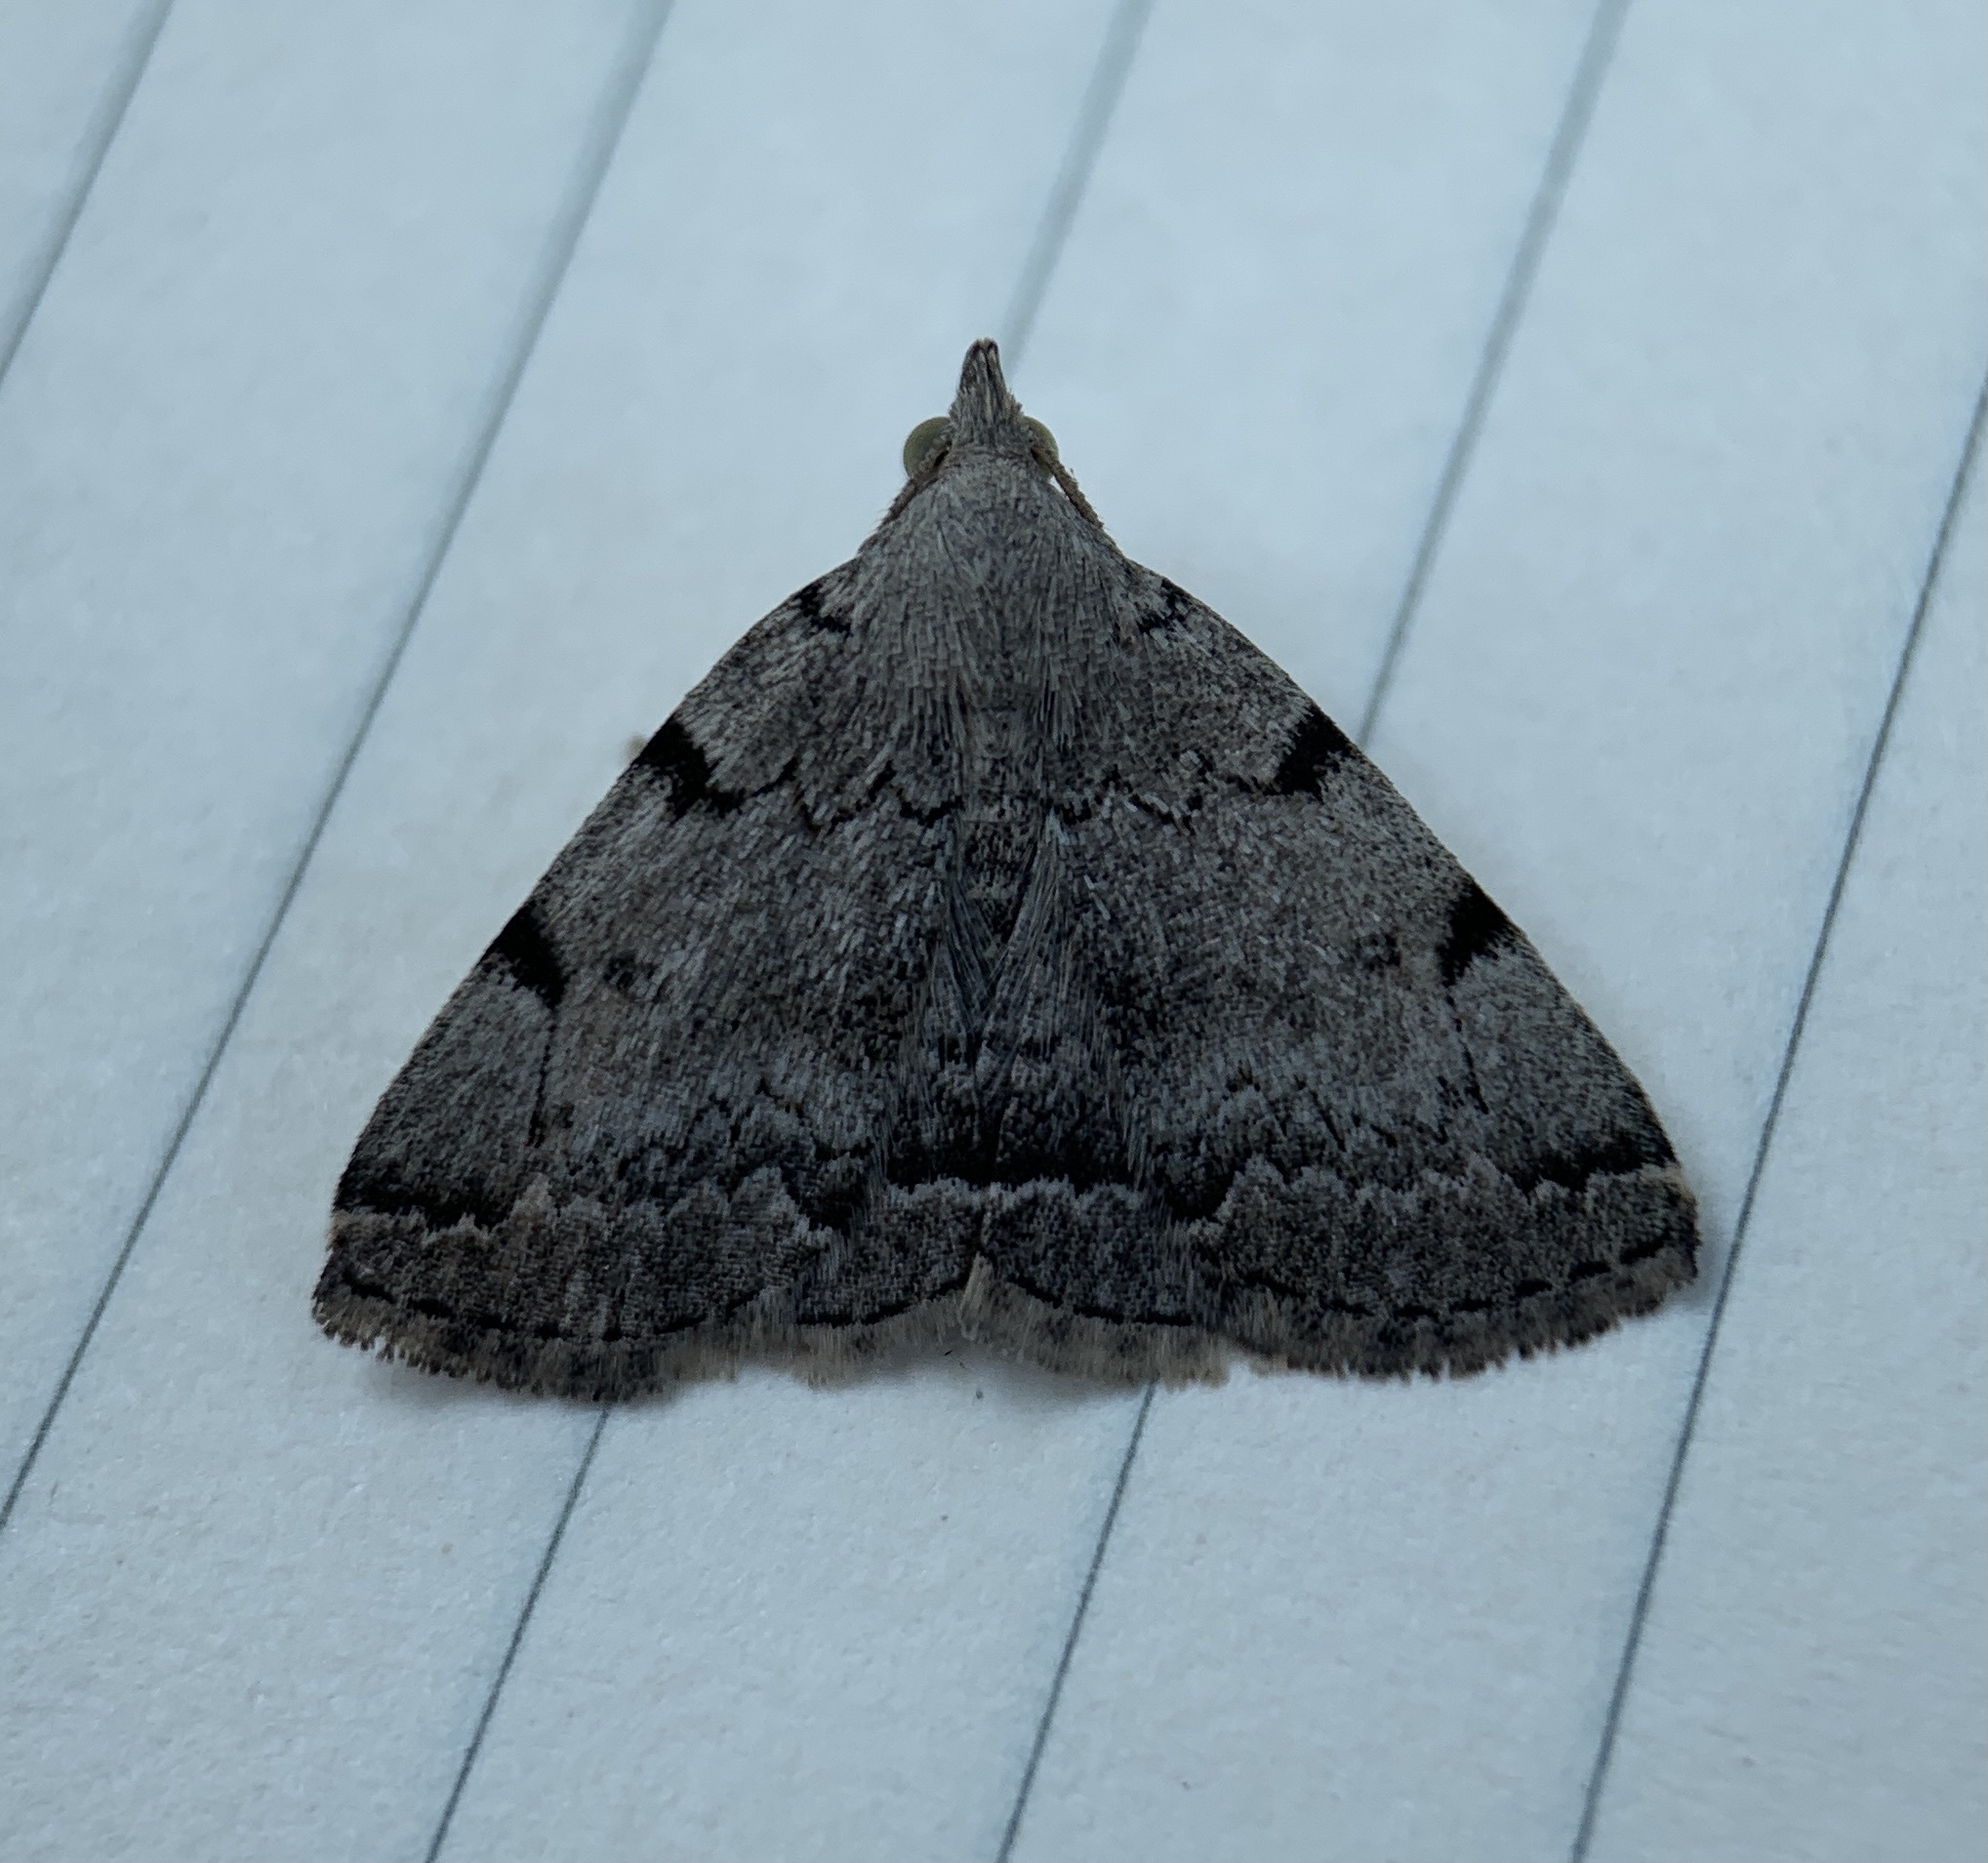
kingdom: Animalia
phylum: Arthropoda
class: Insecta
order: Lepidoptera
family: Erebidae
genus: Zanclognatha
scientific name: Zanclognatha theralis
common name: Flagged fan-foot
